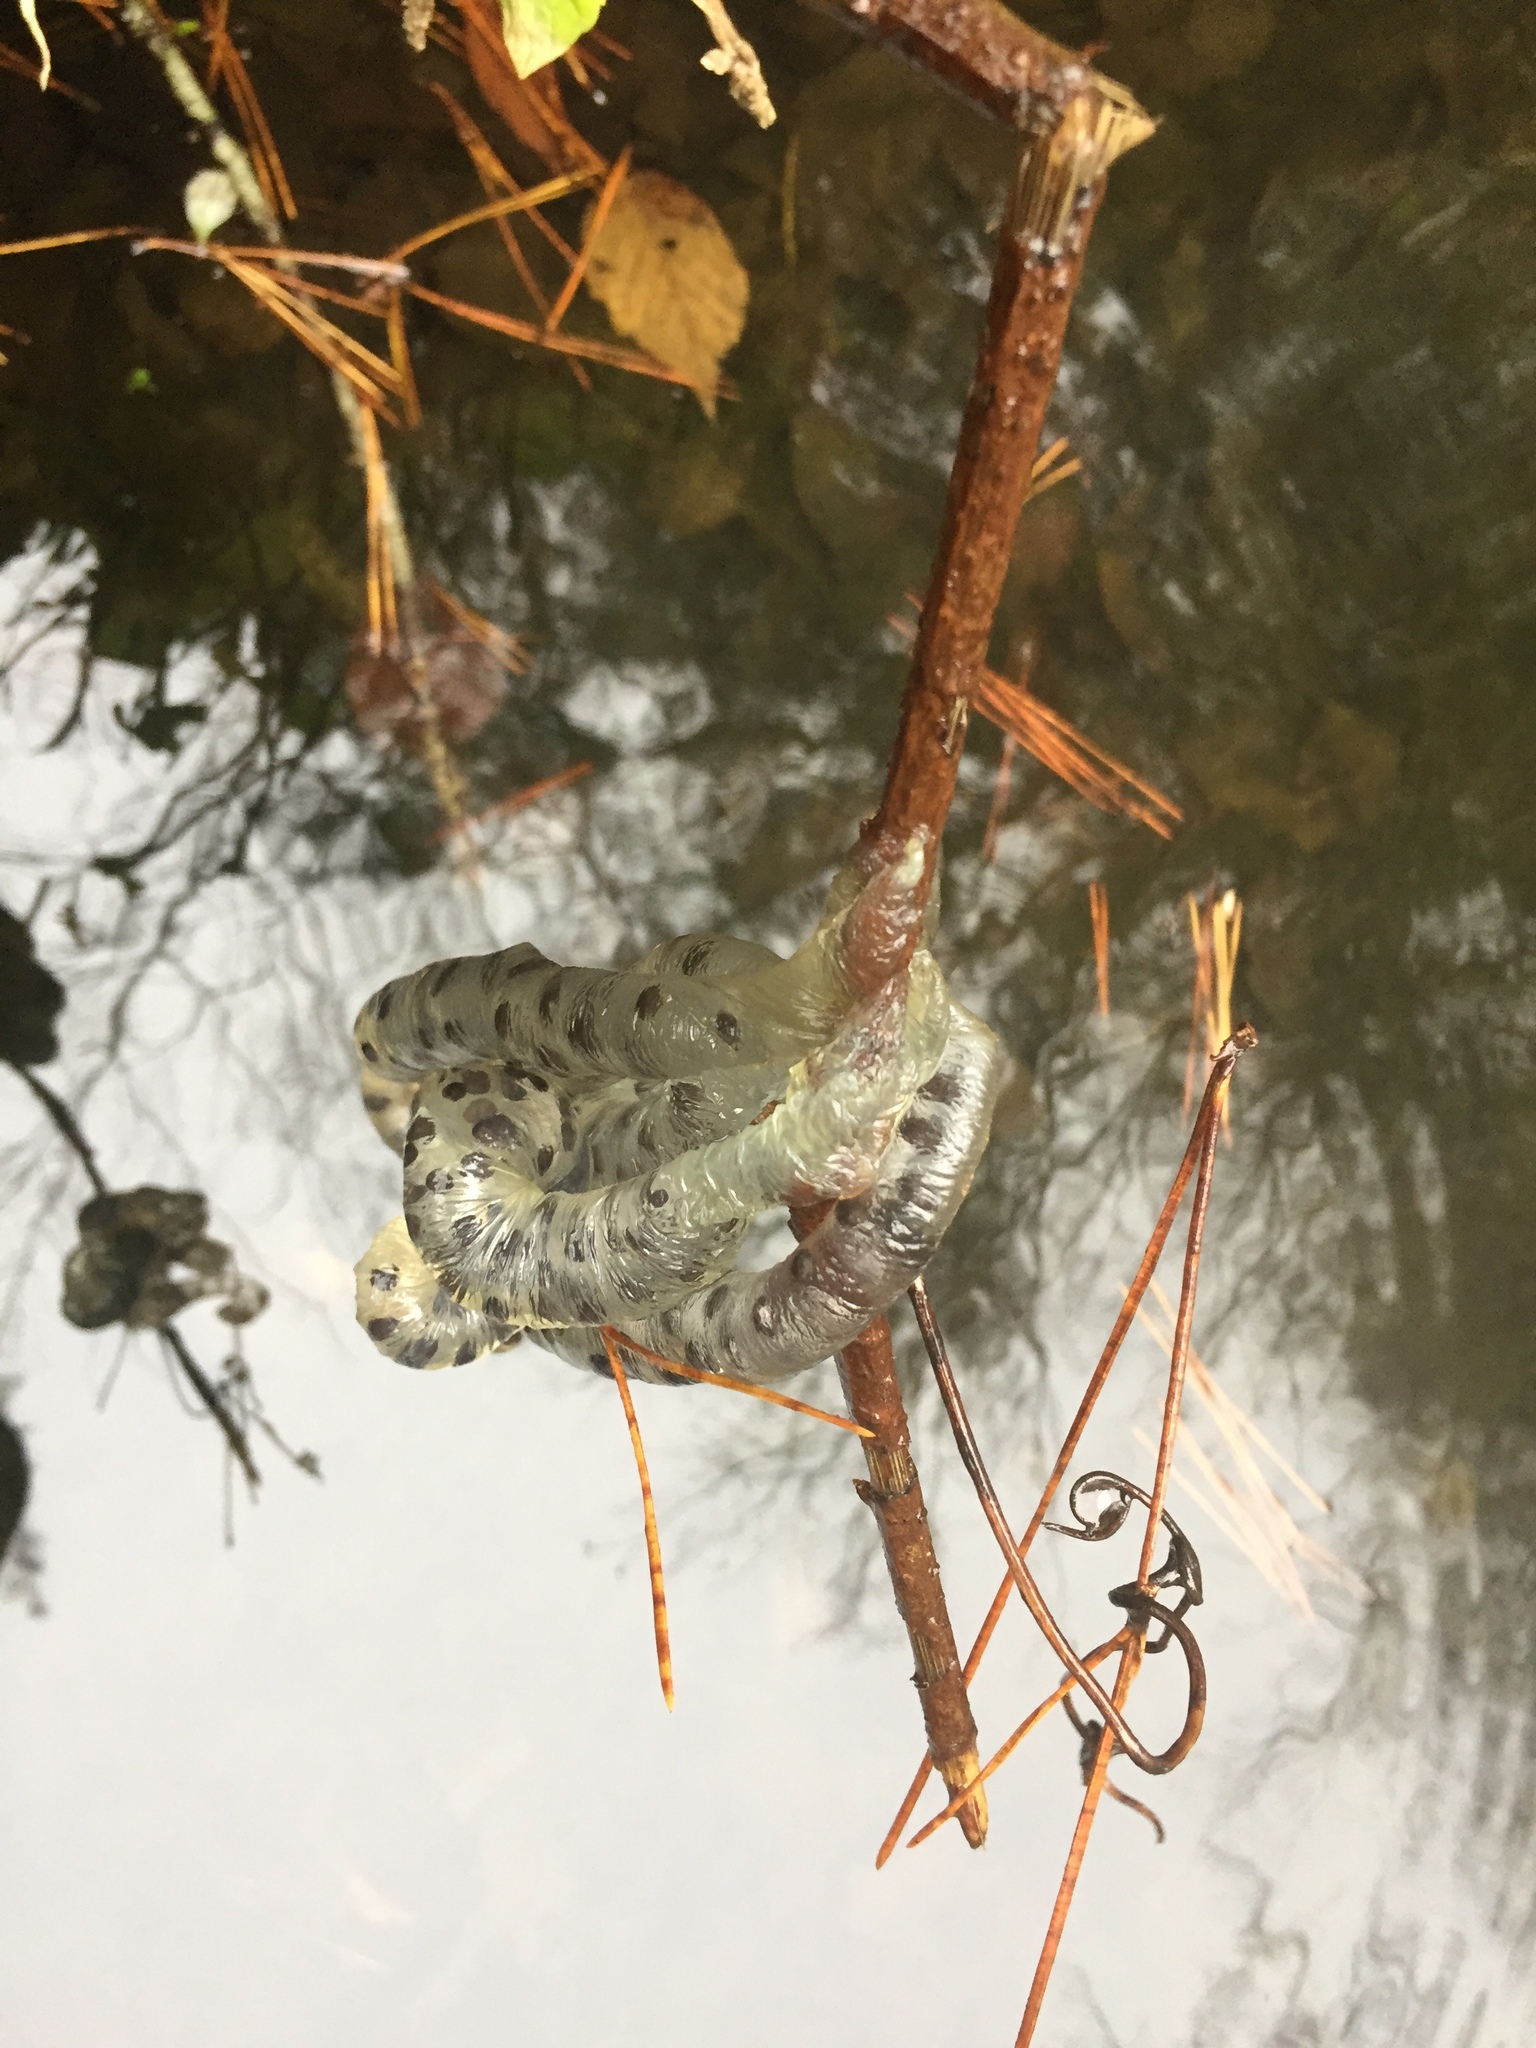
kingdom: Animalia
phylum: Chordata
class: Amphibia
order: Caudata
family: Hynobiidae
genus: Hynobius
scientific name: Hynobius quelpaertensis
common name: Cheju salamander
